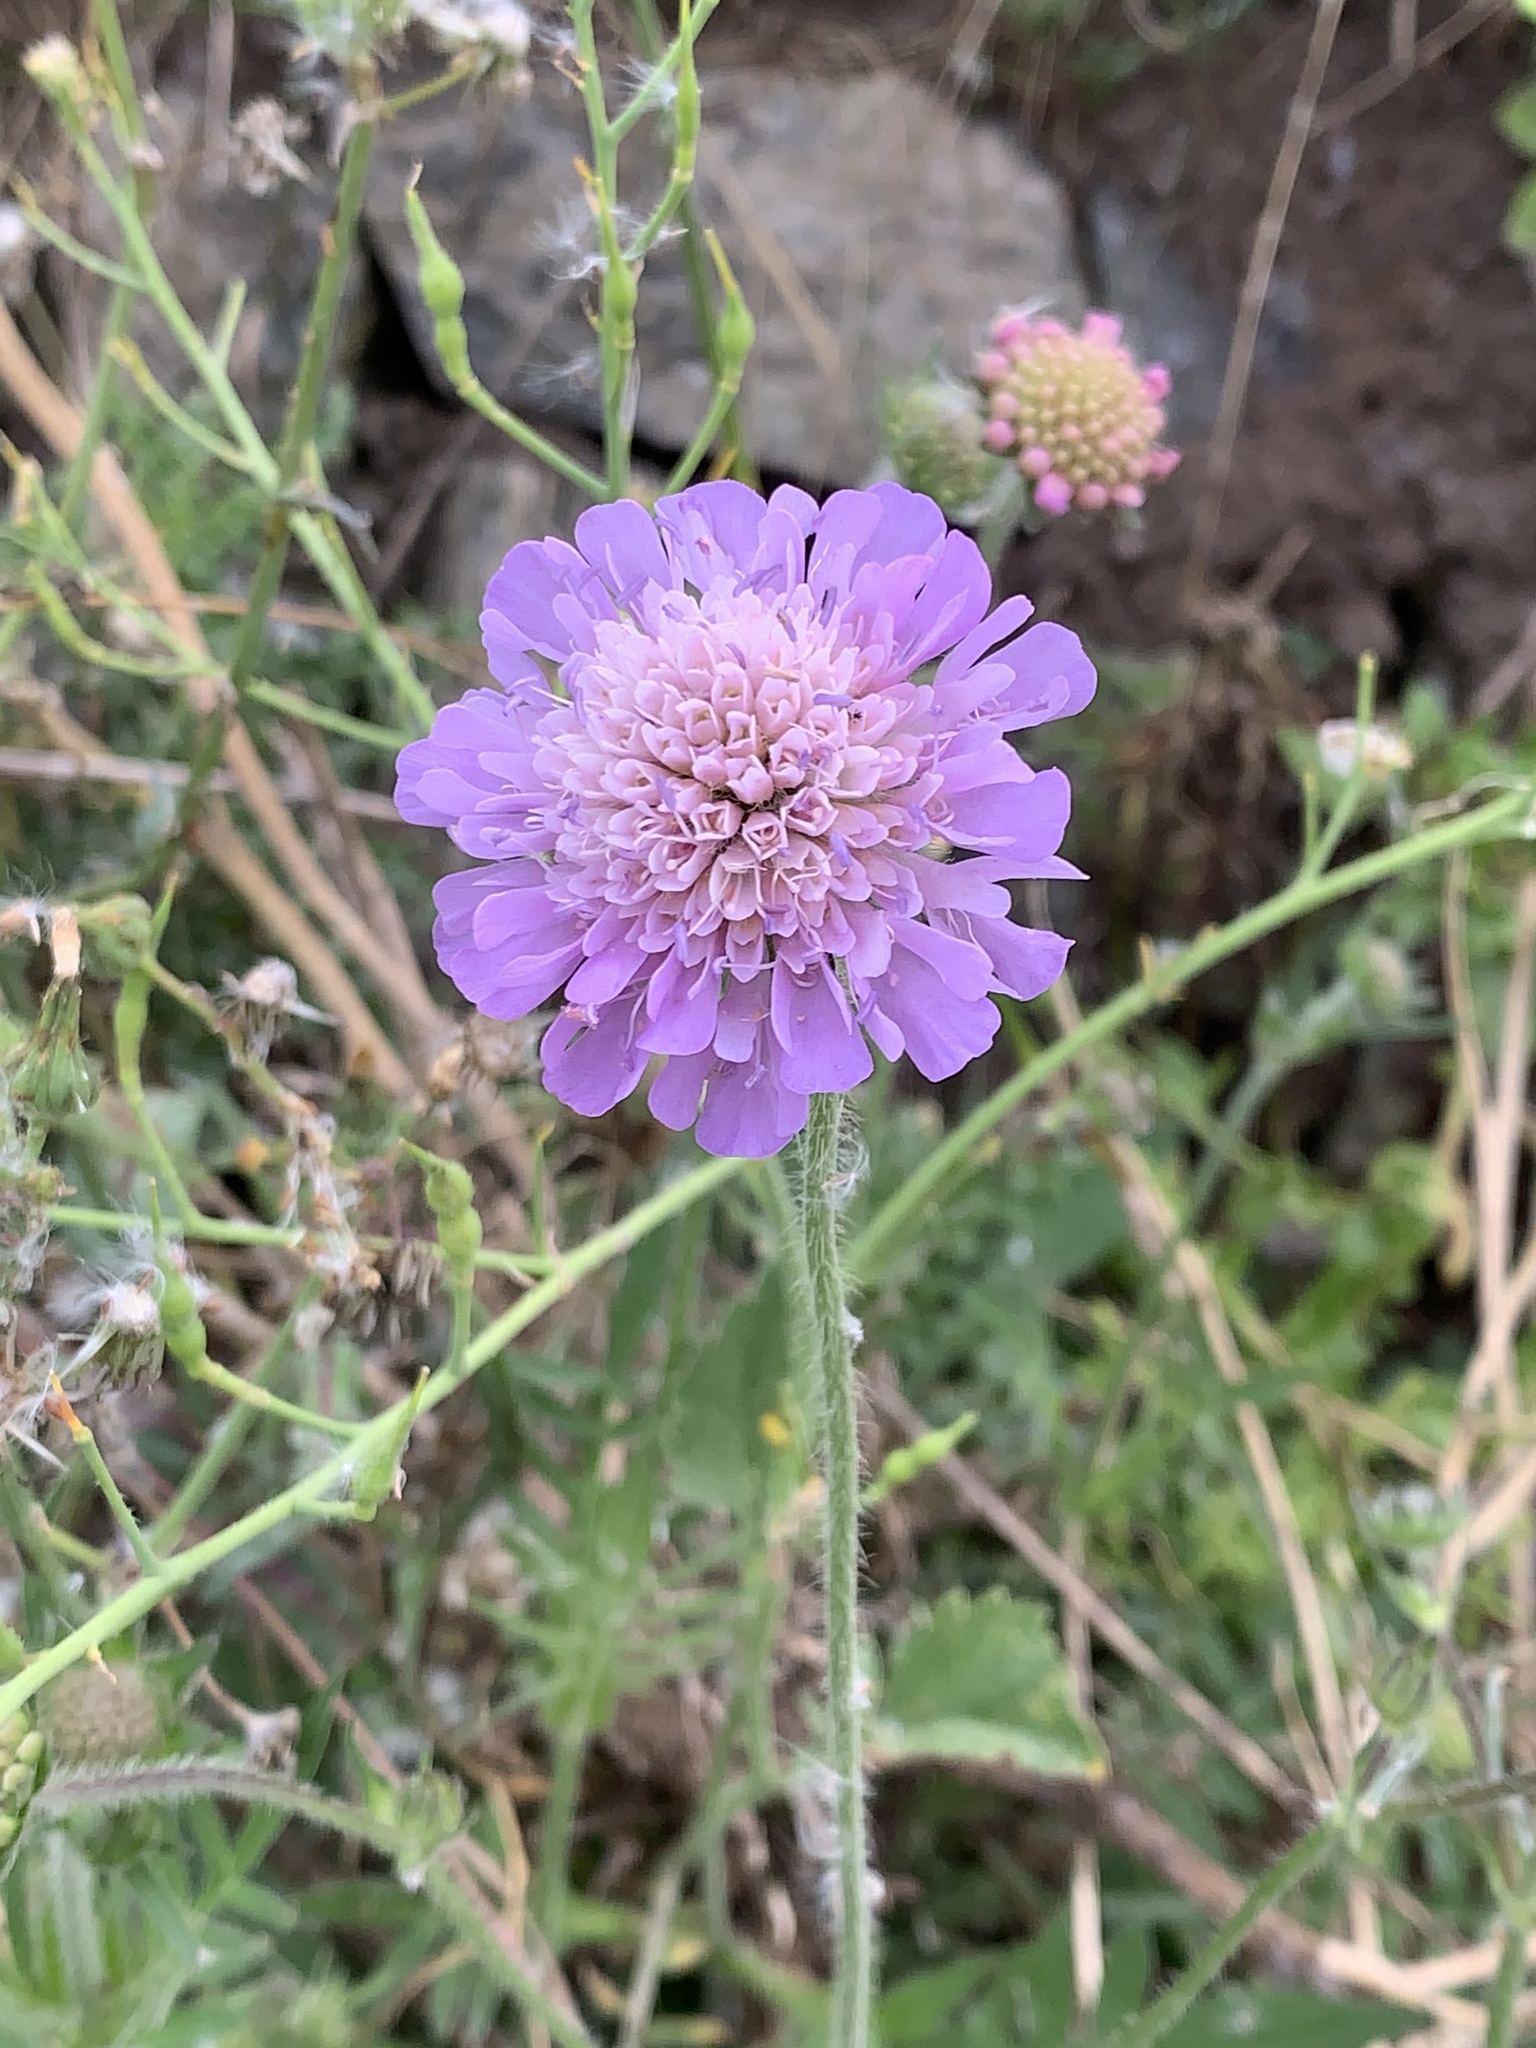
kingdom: Plantae
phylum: Tracheophyta
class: Magnoliopsida
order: Dipsacales
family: Caprifoliaceae
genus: Knautia
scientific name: Knautia arvensis
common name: Field scabiosa
